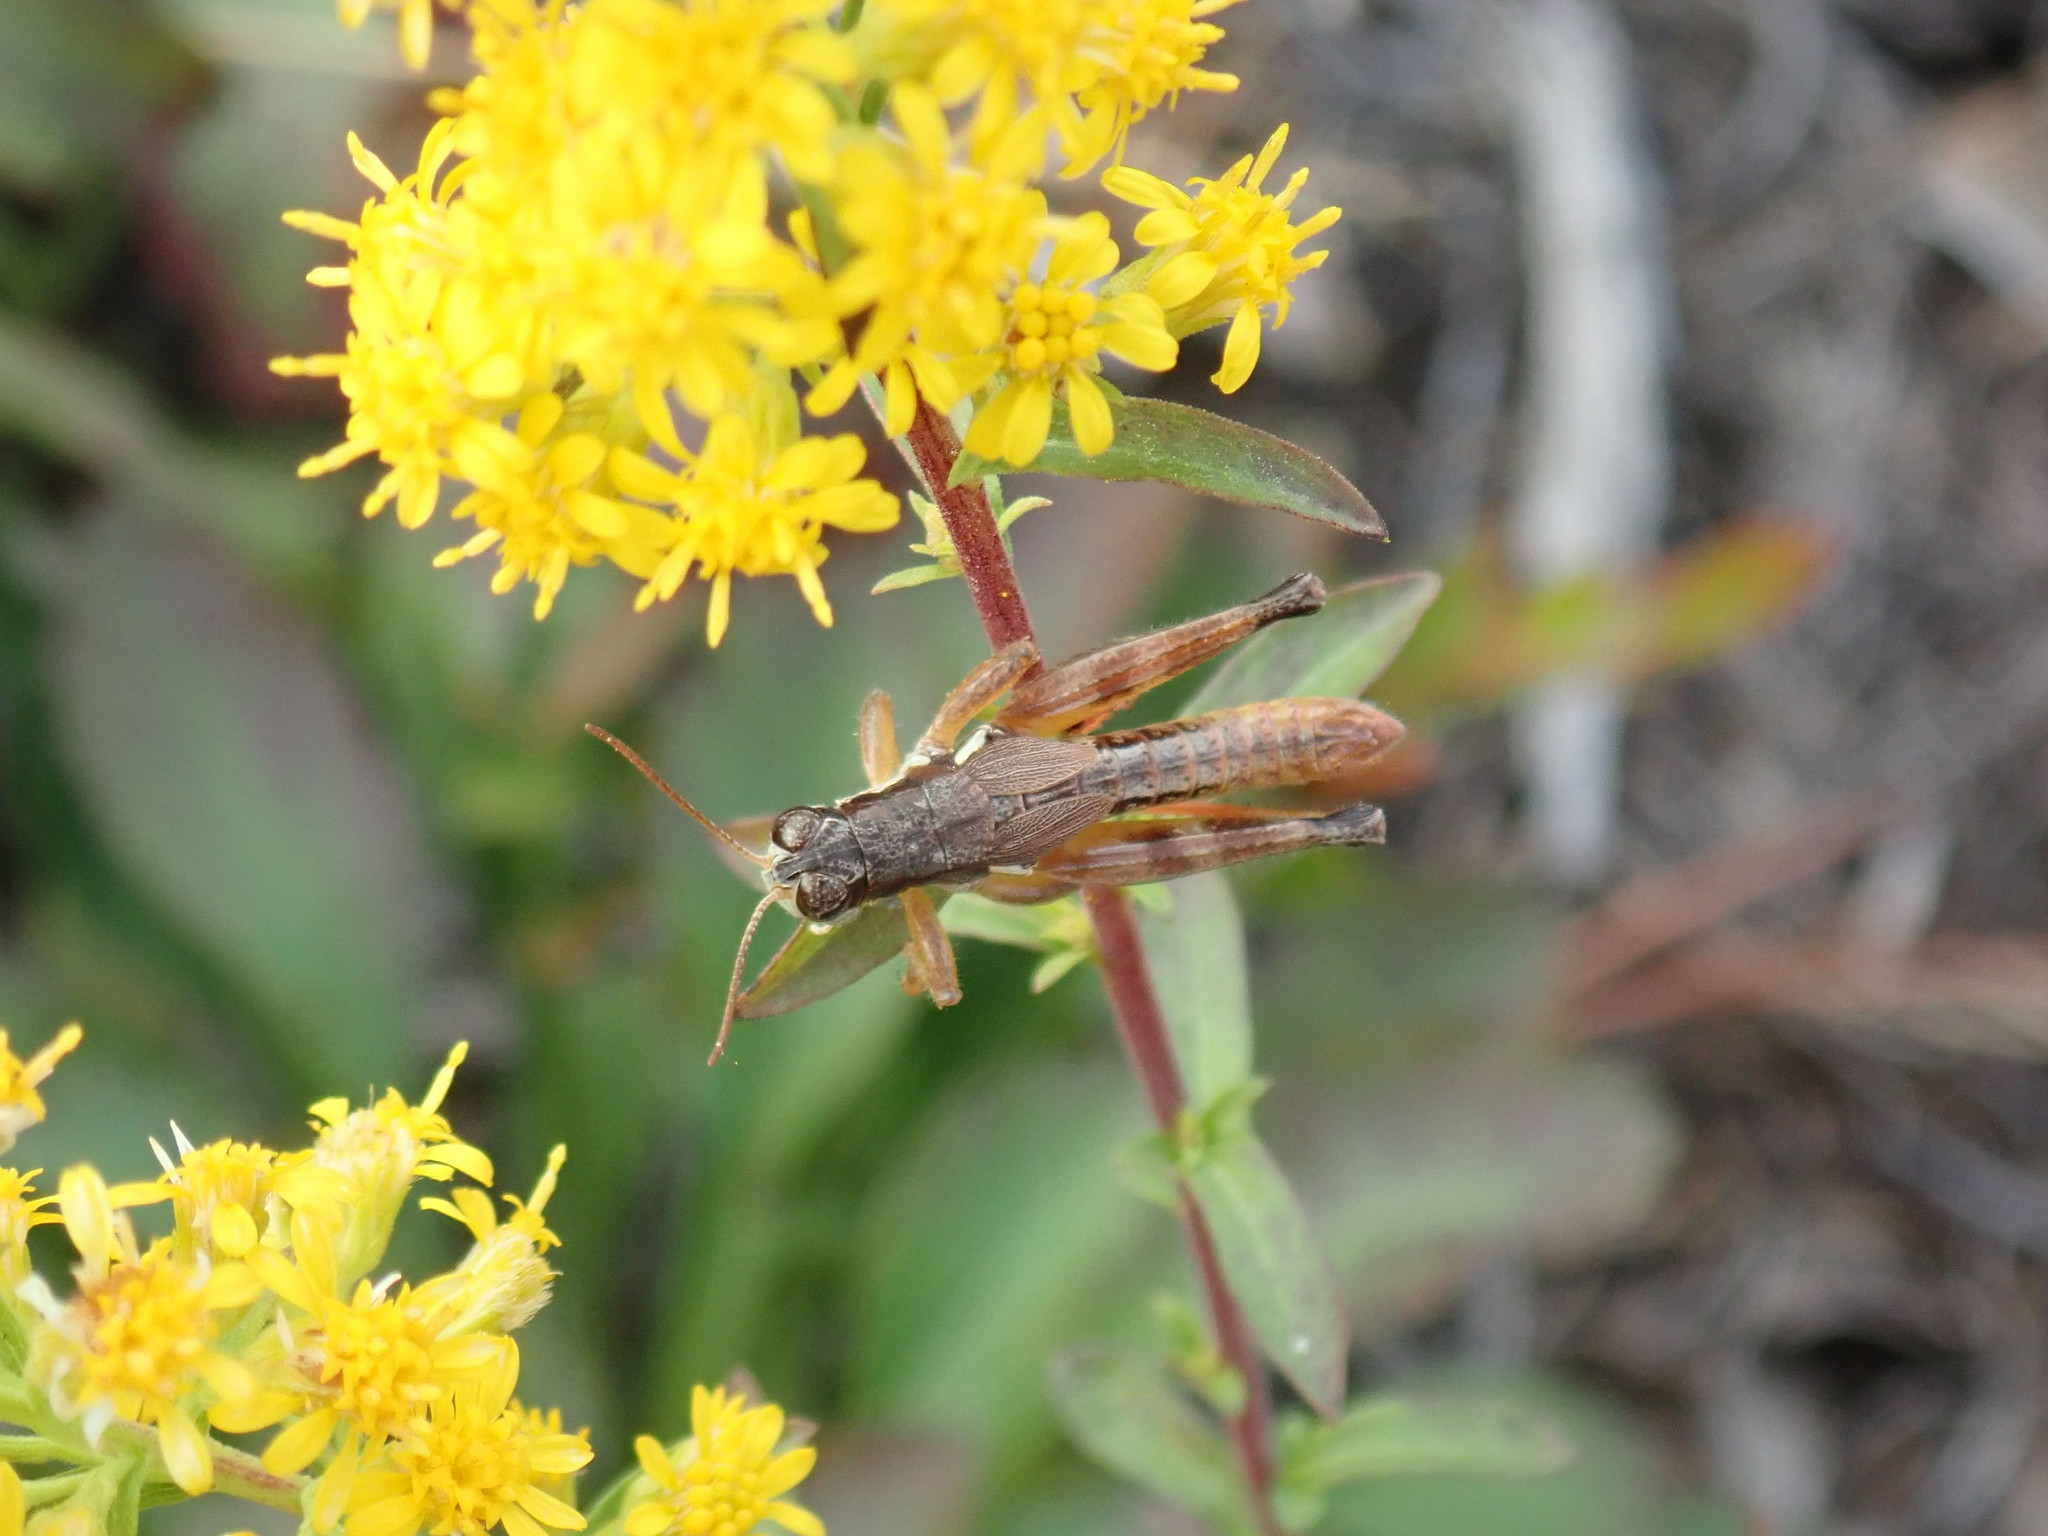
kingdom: Animalia
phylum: Arthropoda
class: Insecta
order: Orthoptera
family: Acrididae
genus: Melanoplus
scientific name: Melanoplus mancus
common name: Smith's spur-throat grasshopper
